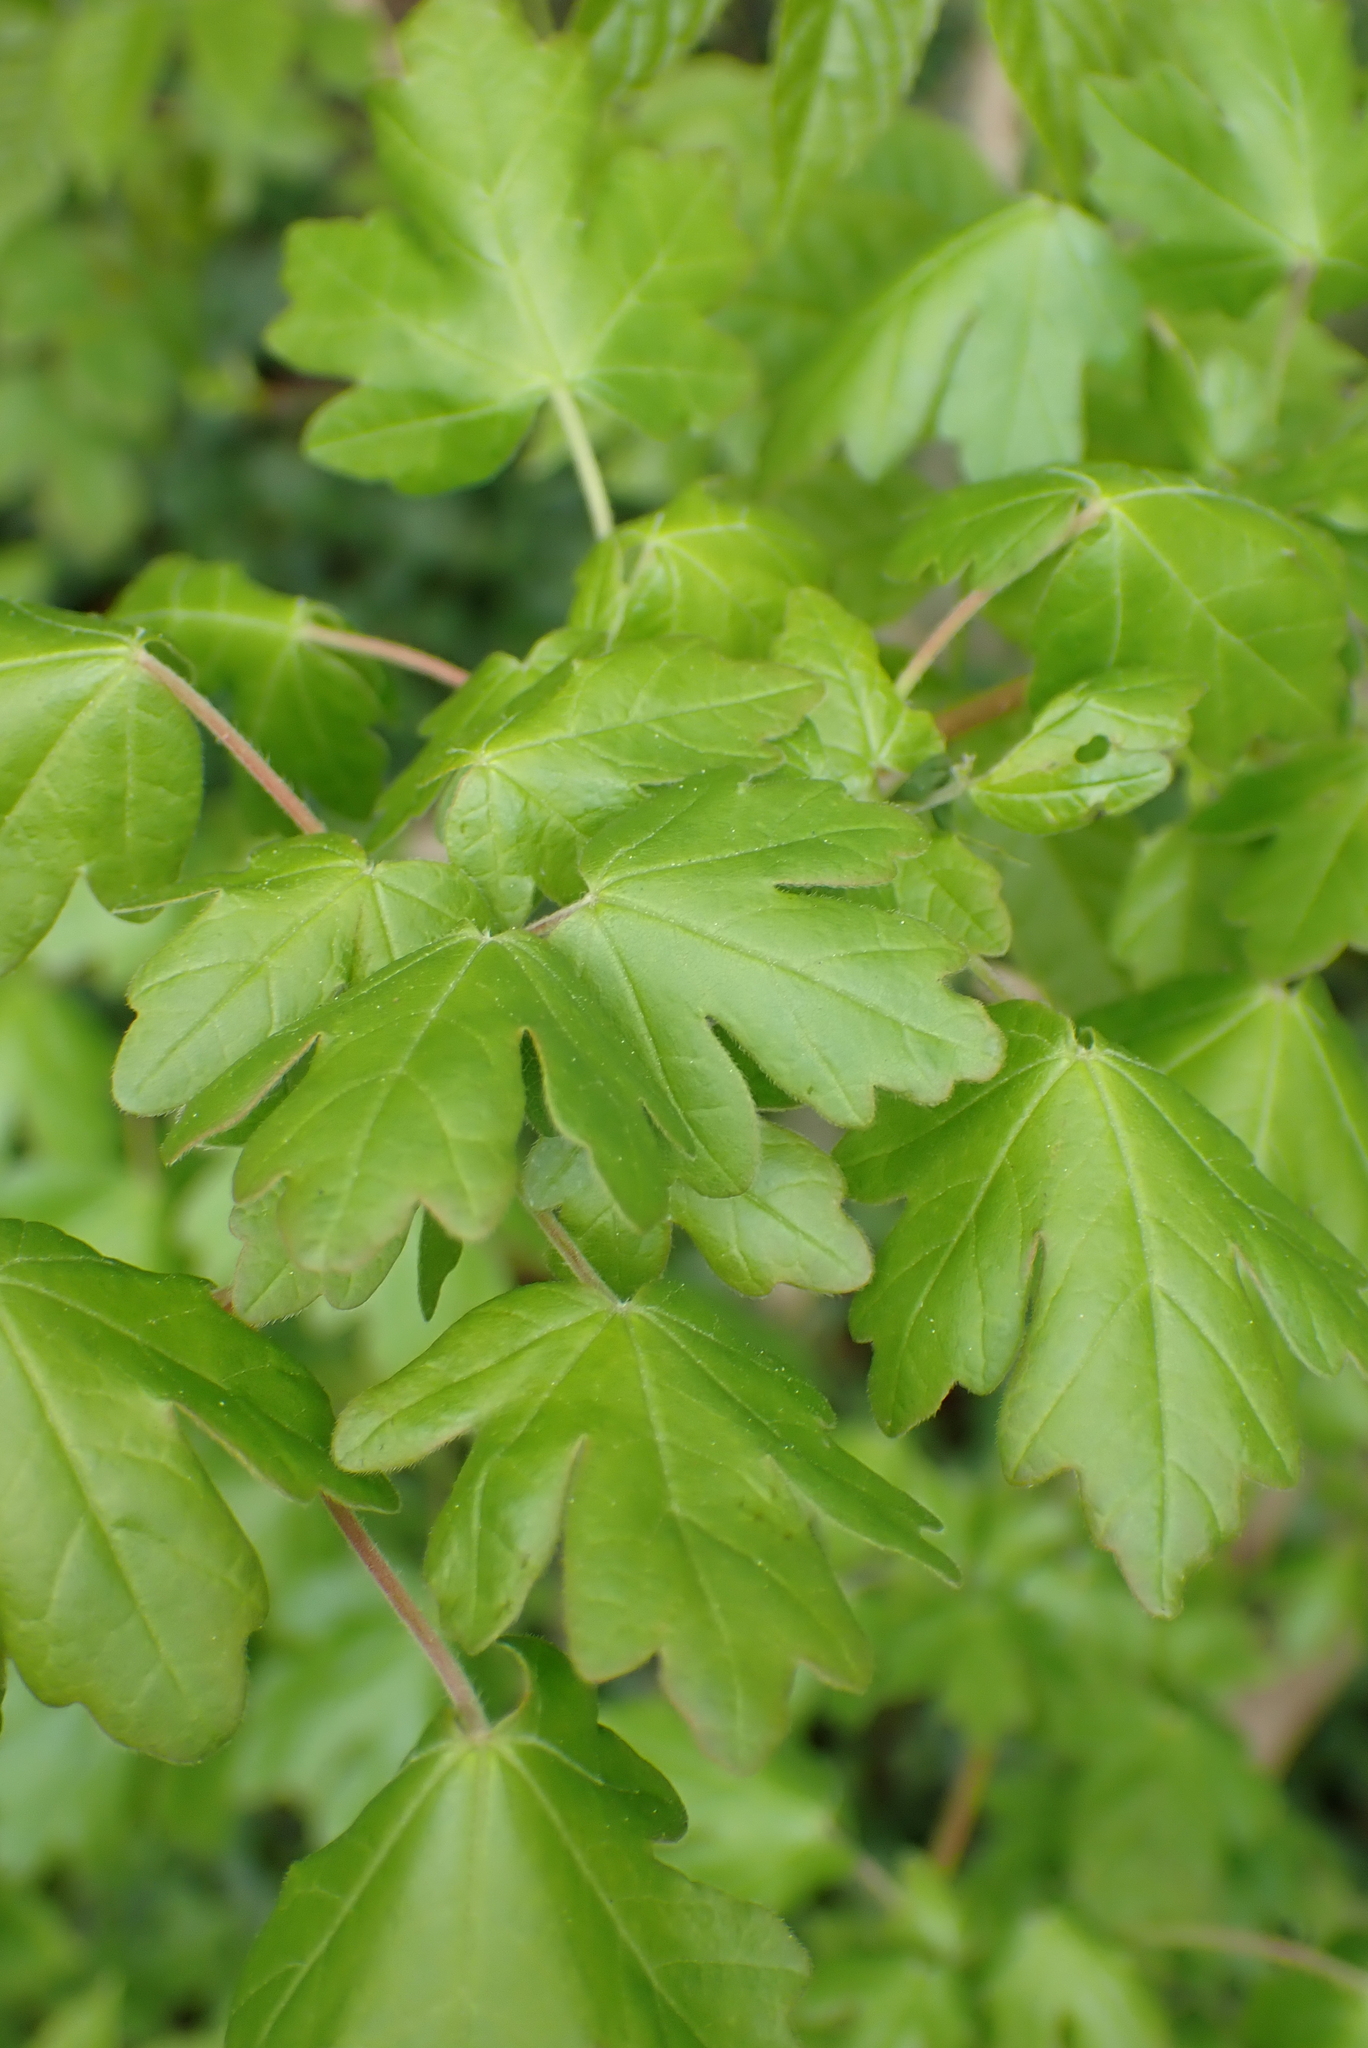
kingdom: Plantae
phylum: Tracheophyta
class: Magnoliopsida
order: Sapindales
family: Sapindaceae
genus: Acer
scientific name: Acer campestre
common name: Field maple
